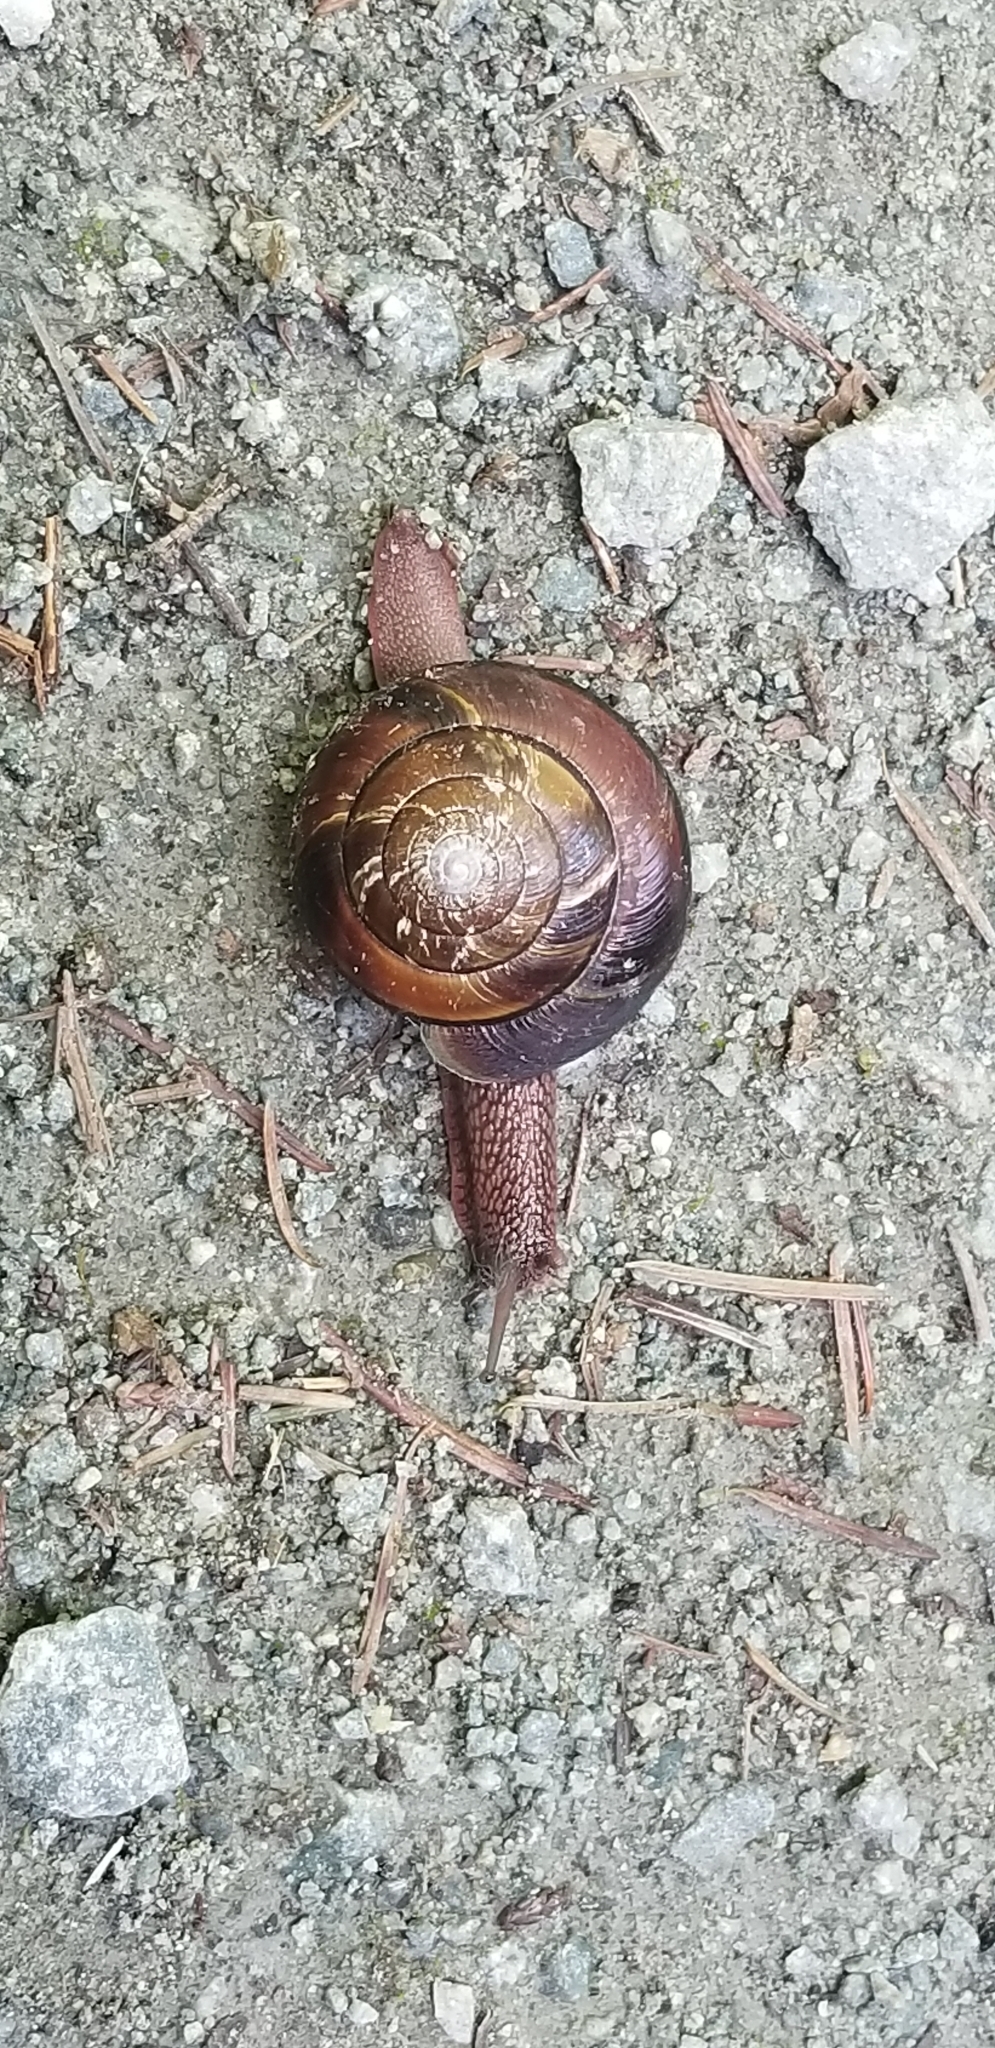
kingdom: Animalia
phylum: Mollusca
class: Gastropoda
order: Stylommatophora
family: Xanthonychidae
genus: Monadenia
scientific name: Monadenia fidelis
